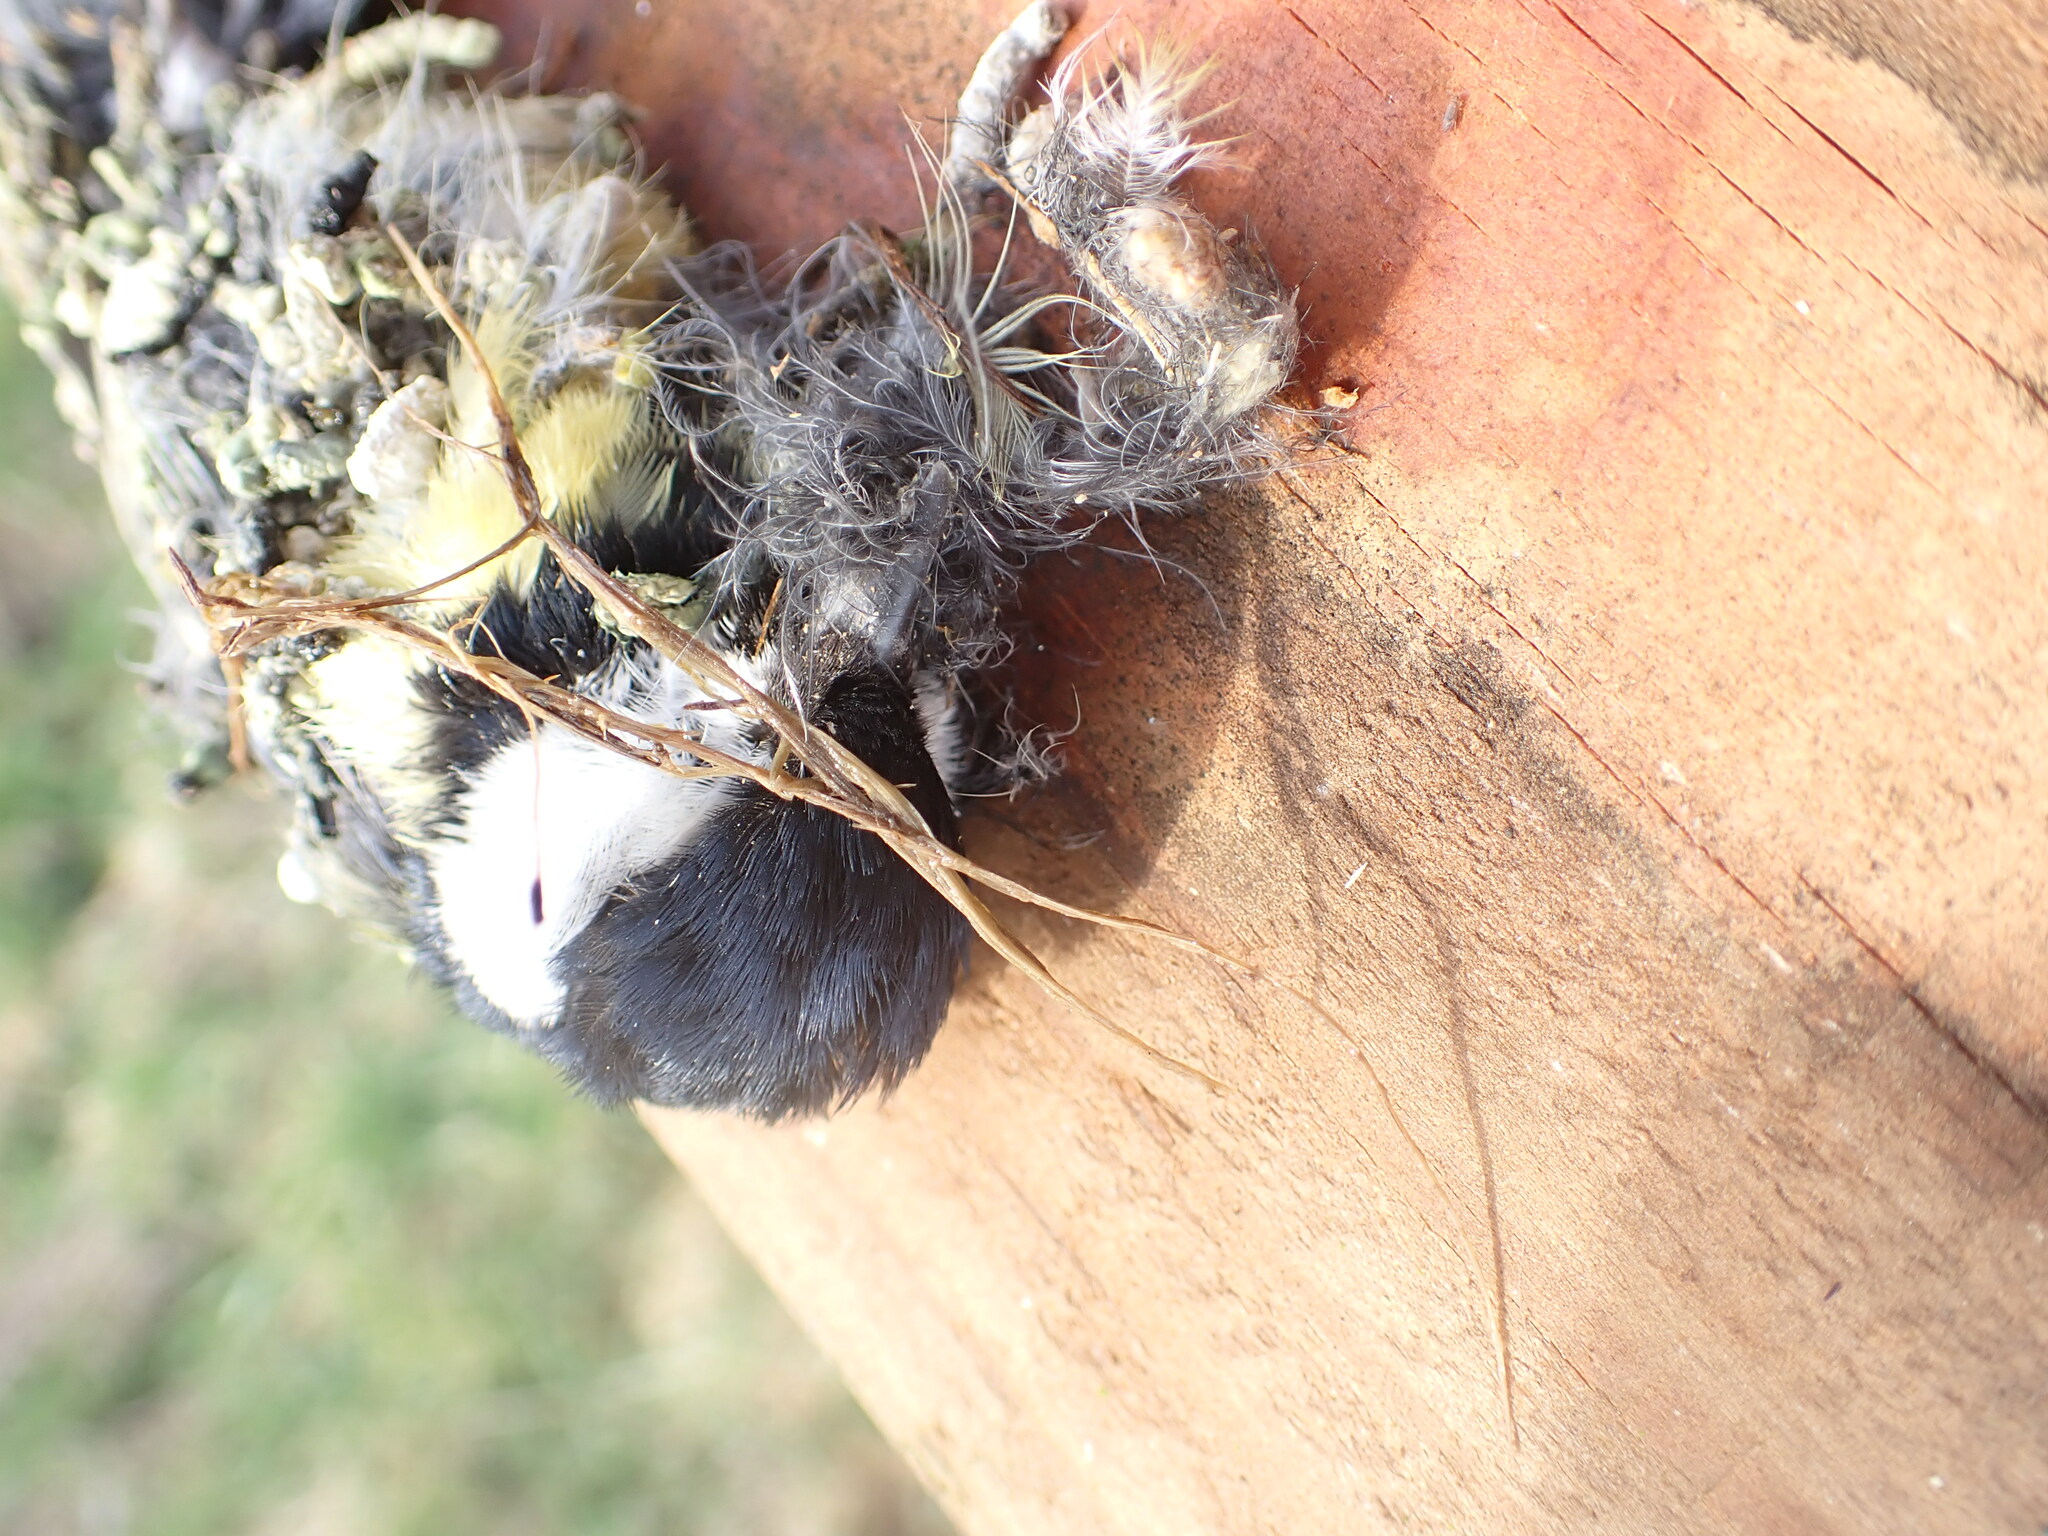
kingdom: Animalia
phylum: Chordata
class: Aves
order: Passeriformes
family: Paridae
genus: Parus
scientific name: Parus major
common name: Great tit
